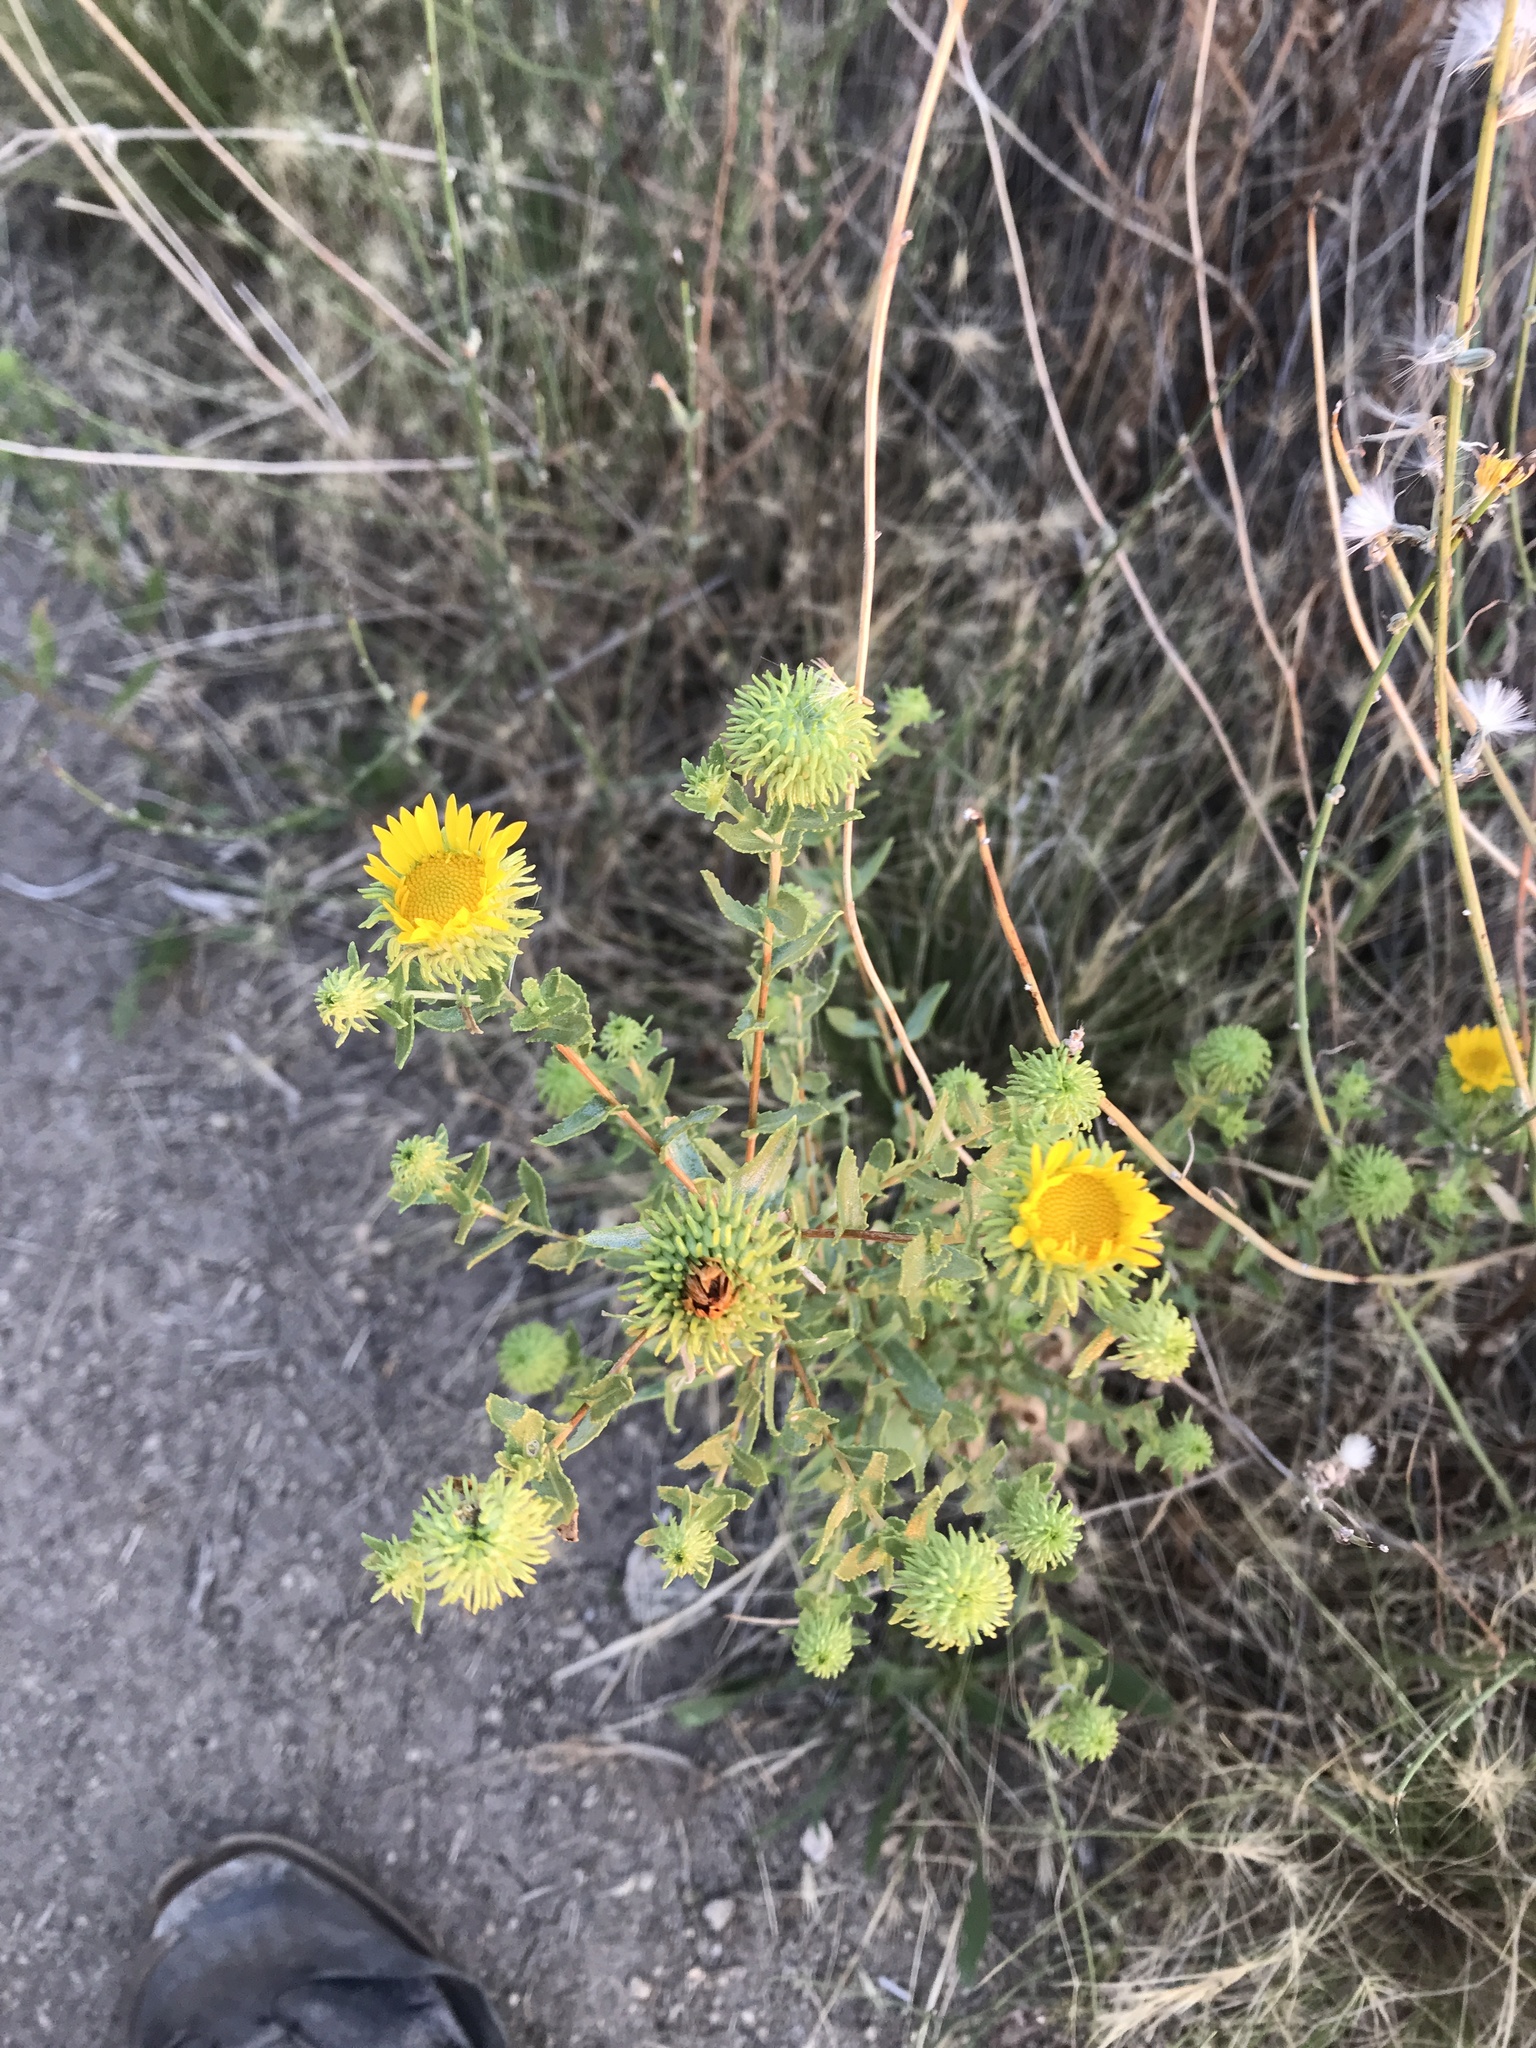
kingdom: Plantae
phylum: Tracheophyta
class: Magnoliopsida
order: Asterales
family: Asteraceae
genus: Grindelia
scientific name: Grindelia squarrosa
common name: Curly-cup gumweed
